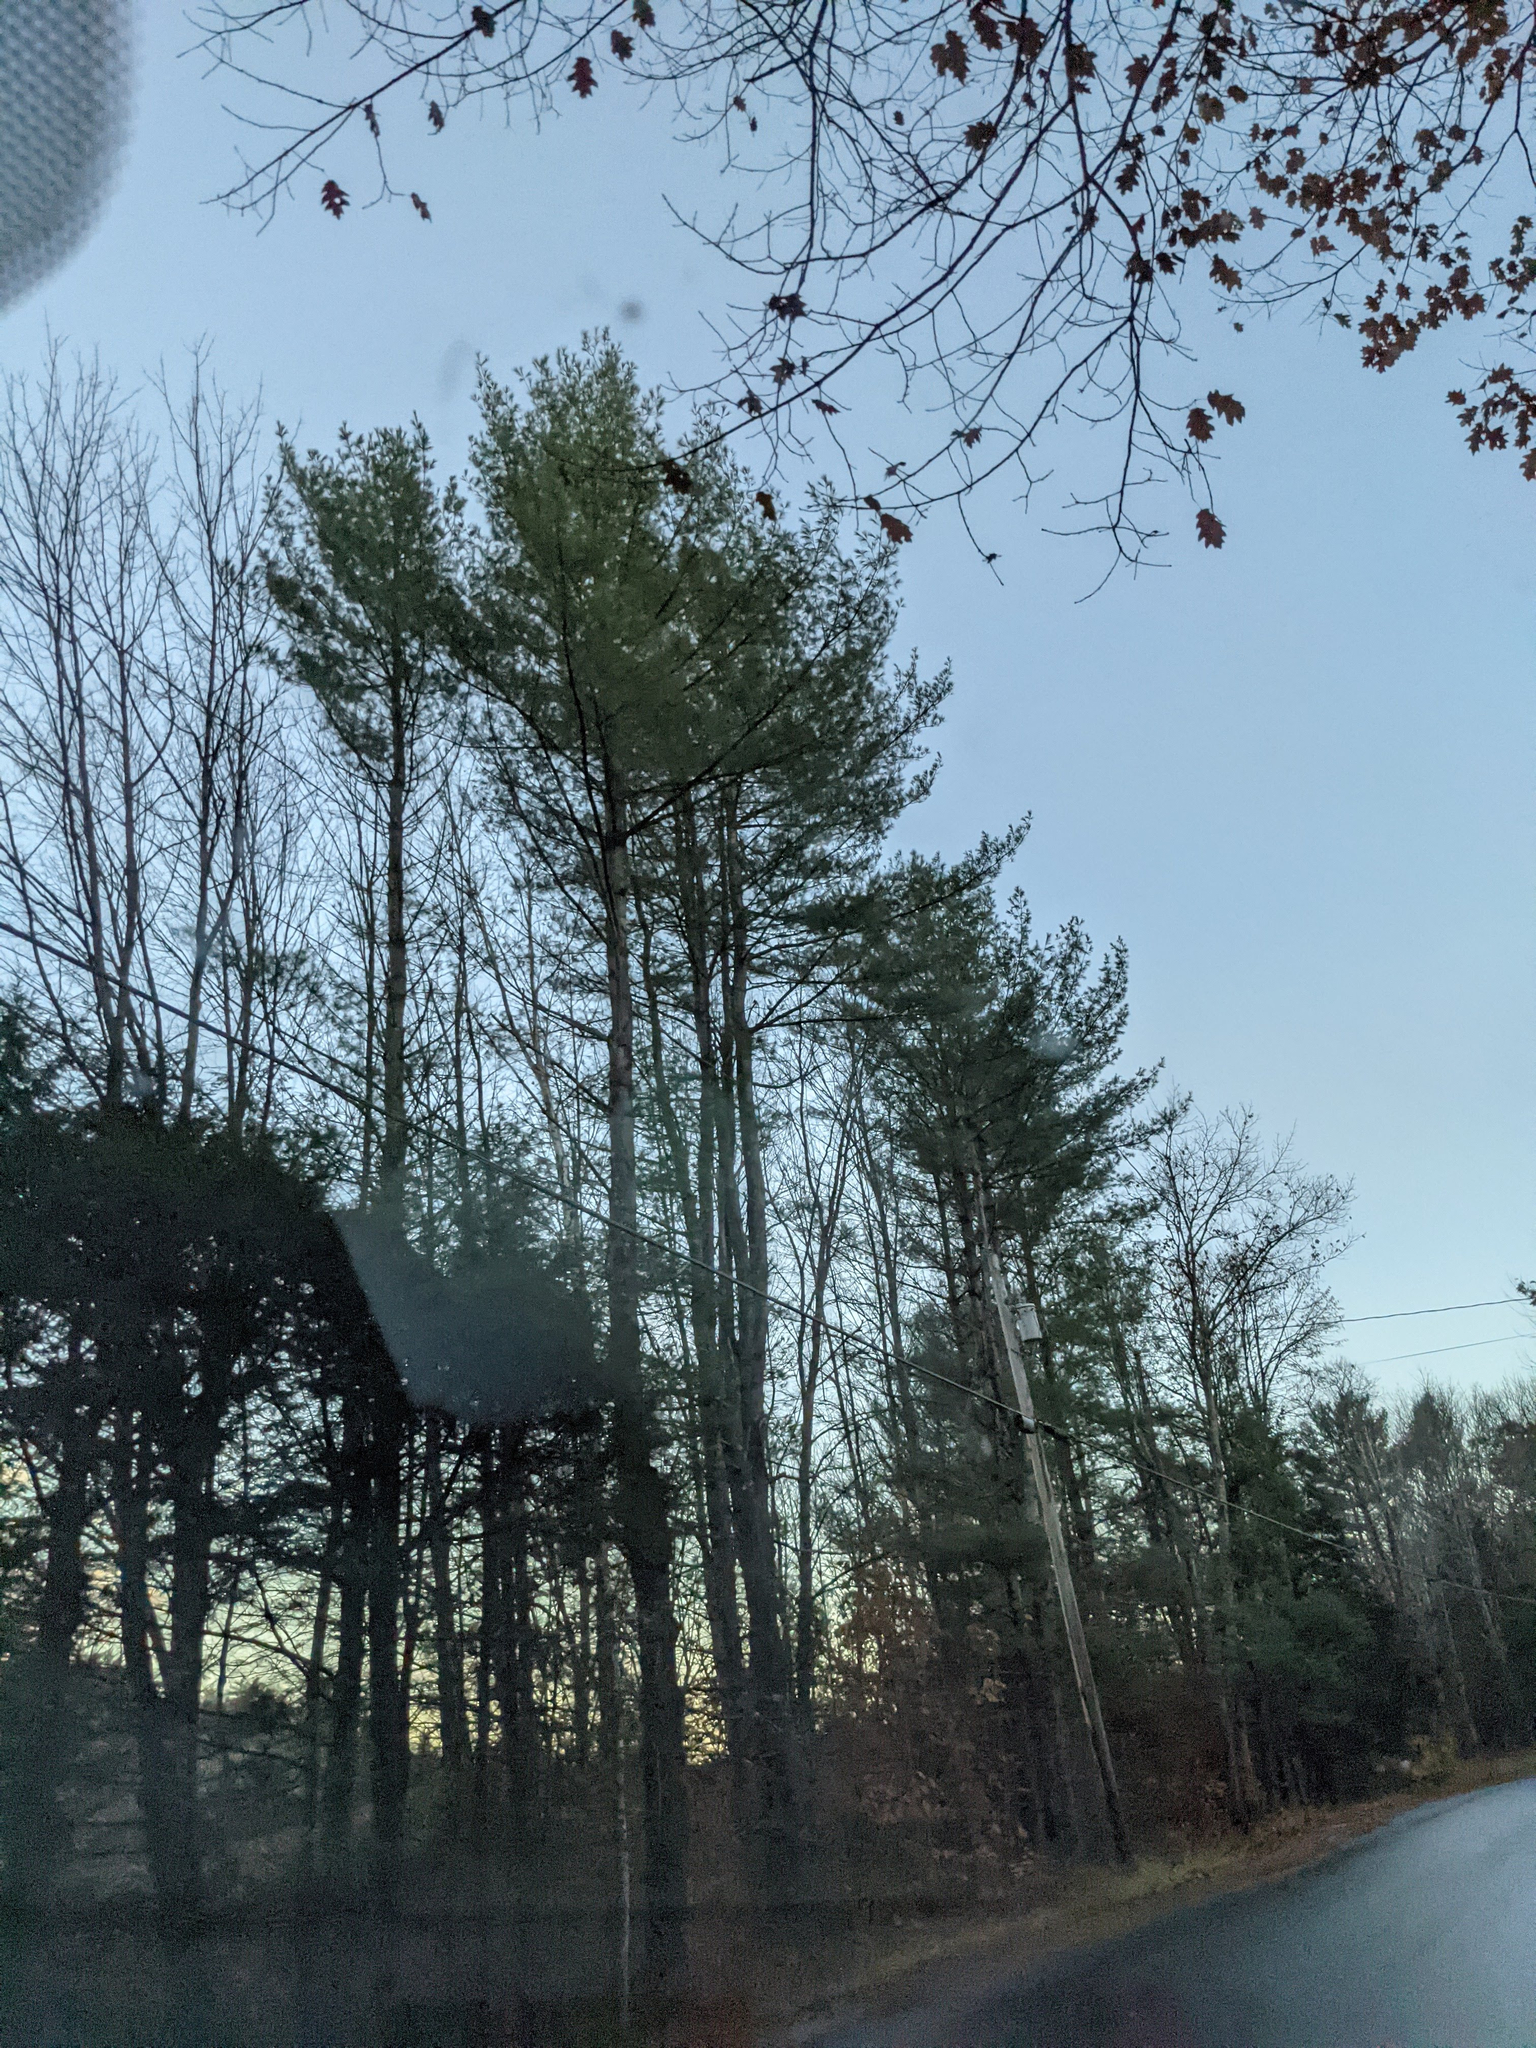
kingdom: Plantae
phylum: Tracheophyta
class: Pinopsida
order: Pinales
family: Pinaceae
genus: Pinus
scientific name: Pinus strobus
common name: Weymouth pine
